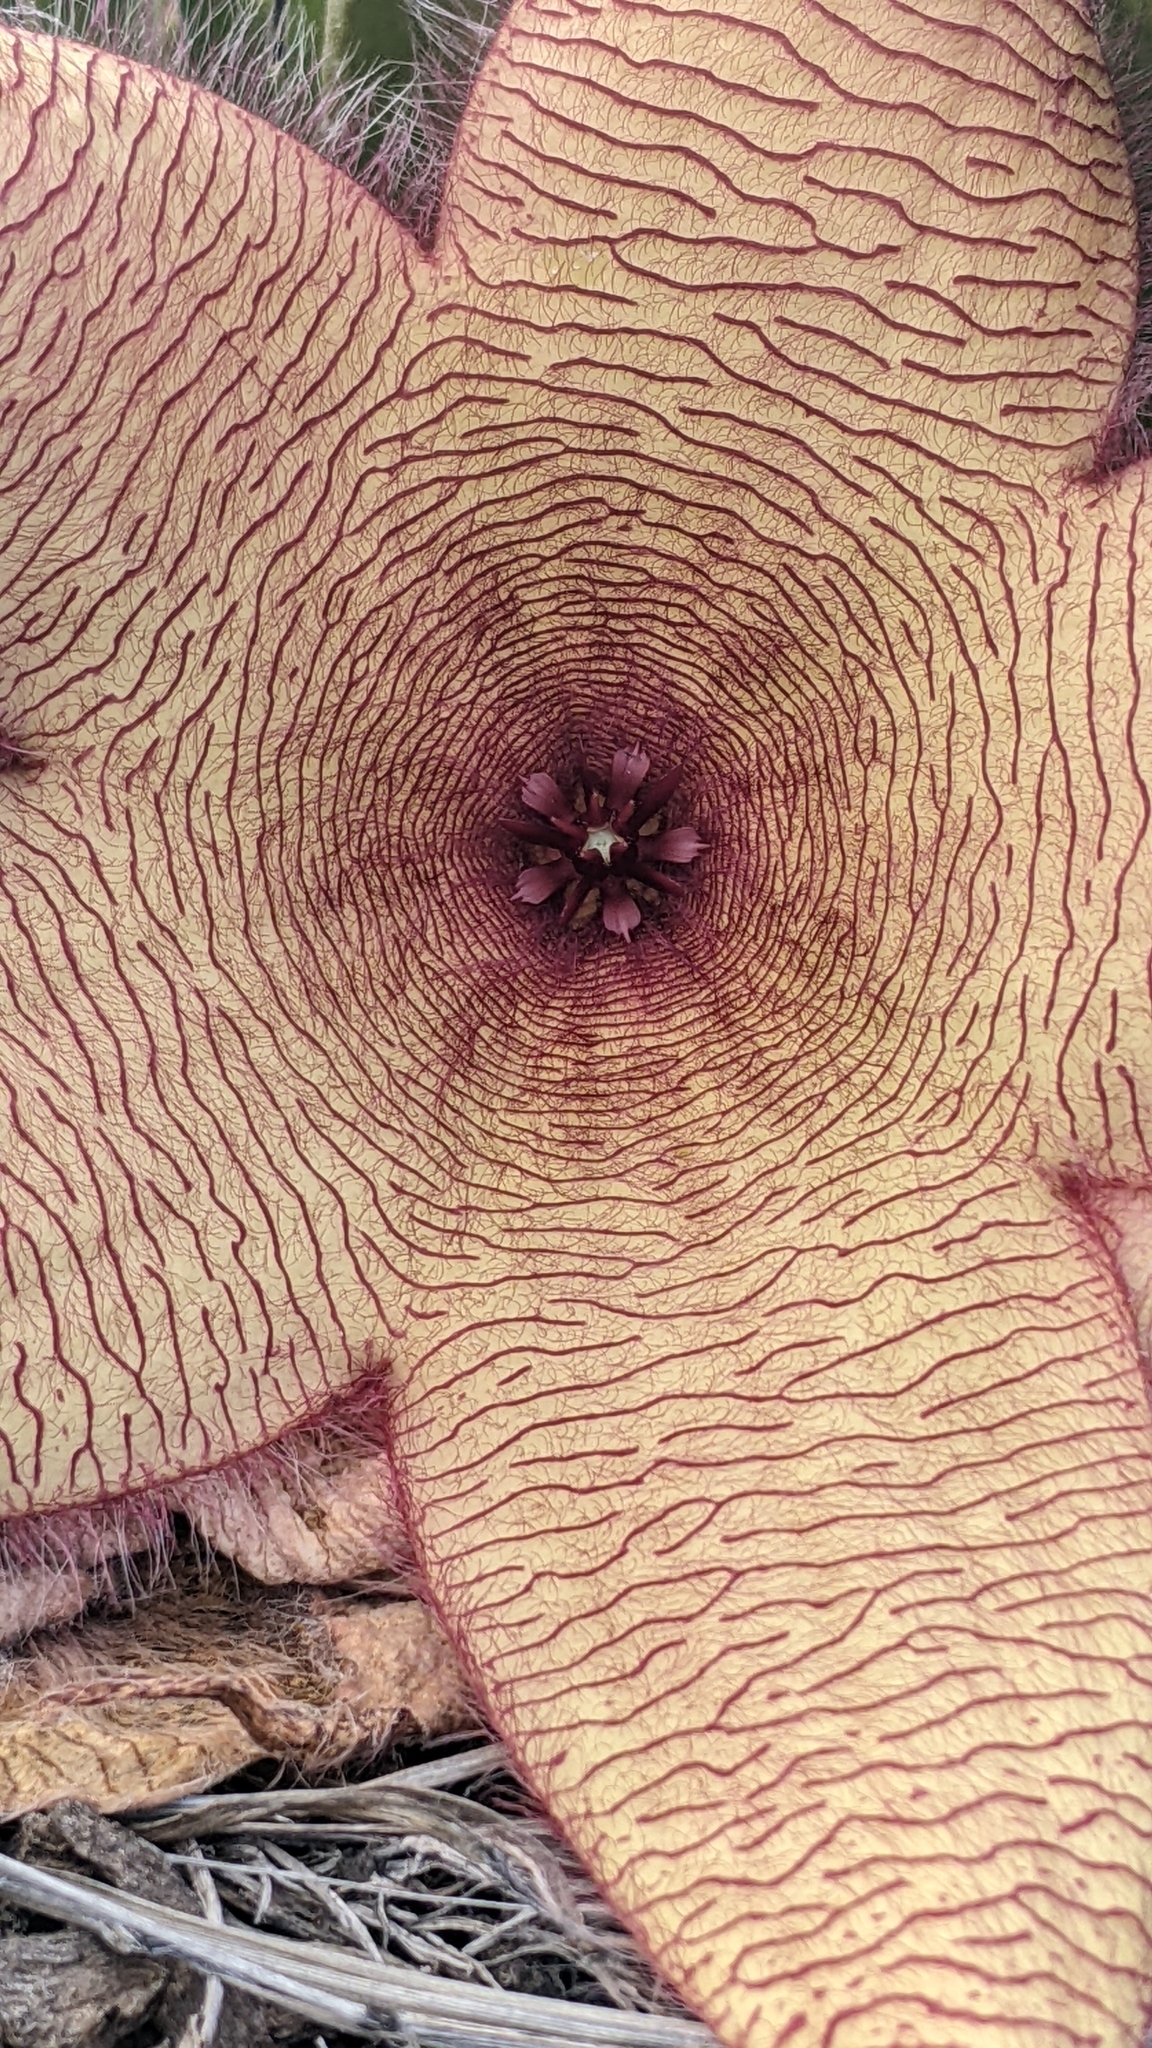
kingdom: Plantae
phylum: Tracheophyta
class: Magnoliopsida
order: Gentianales
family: Apocynaceae
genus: Ceropegia
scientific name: Ceropegia gigantea
